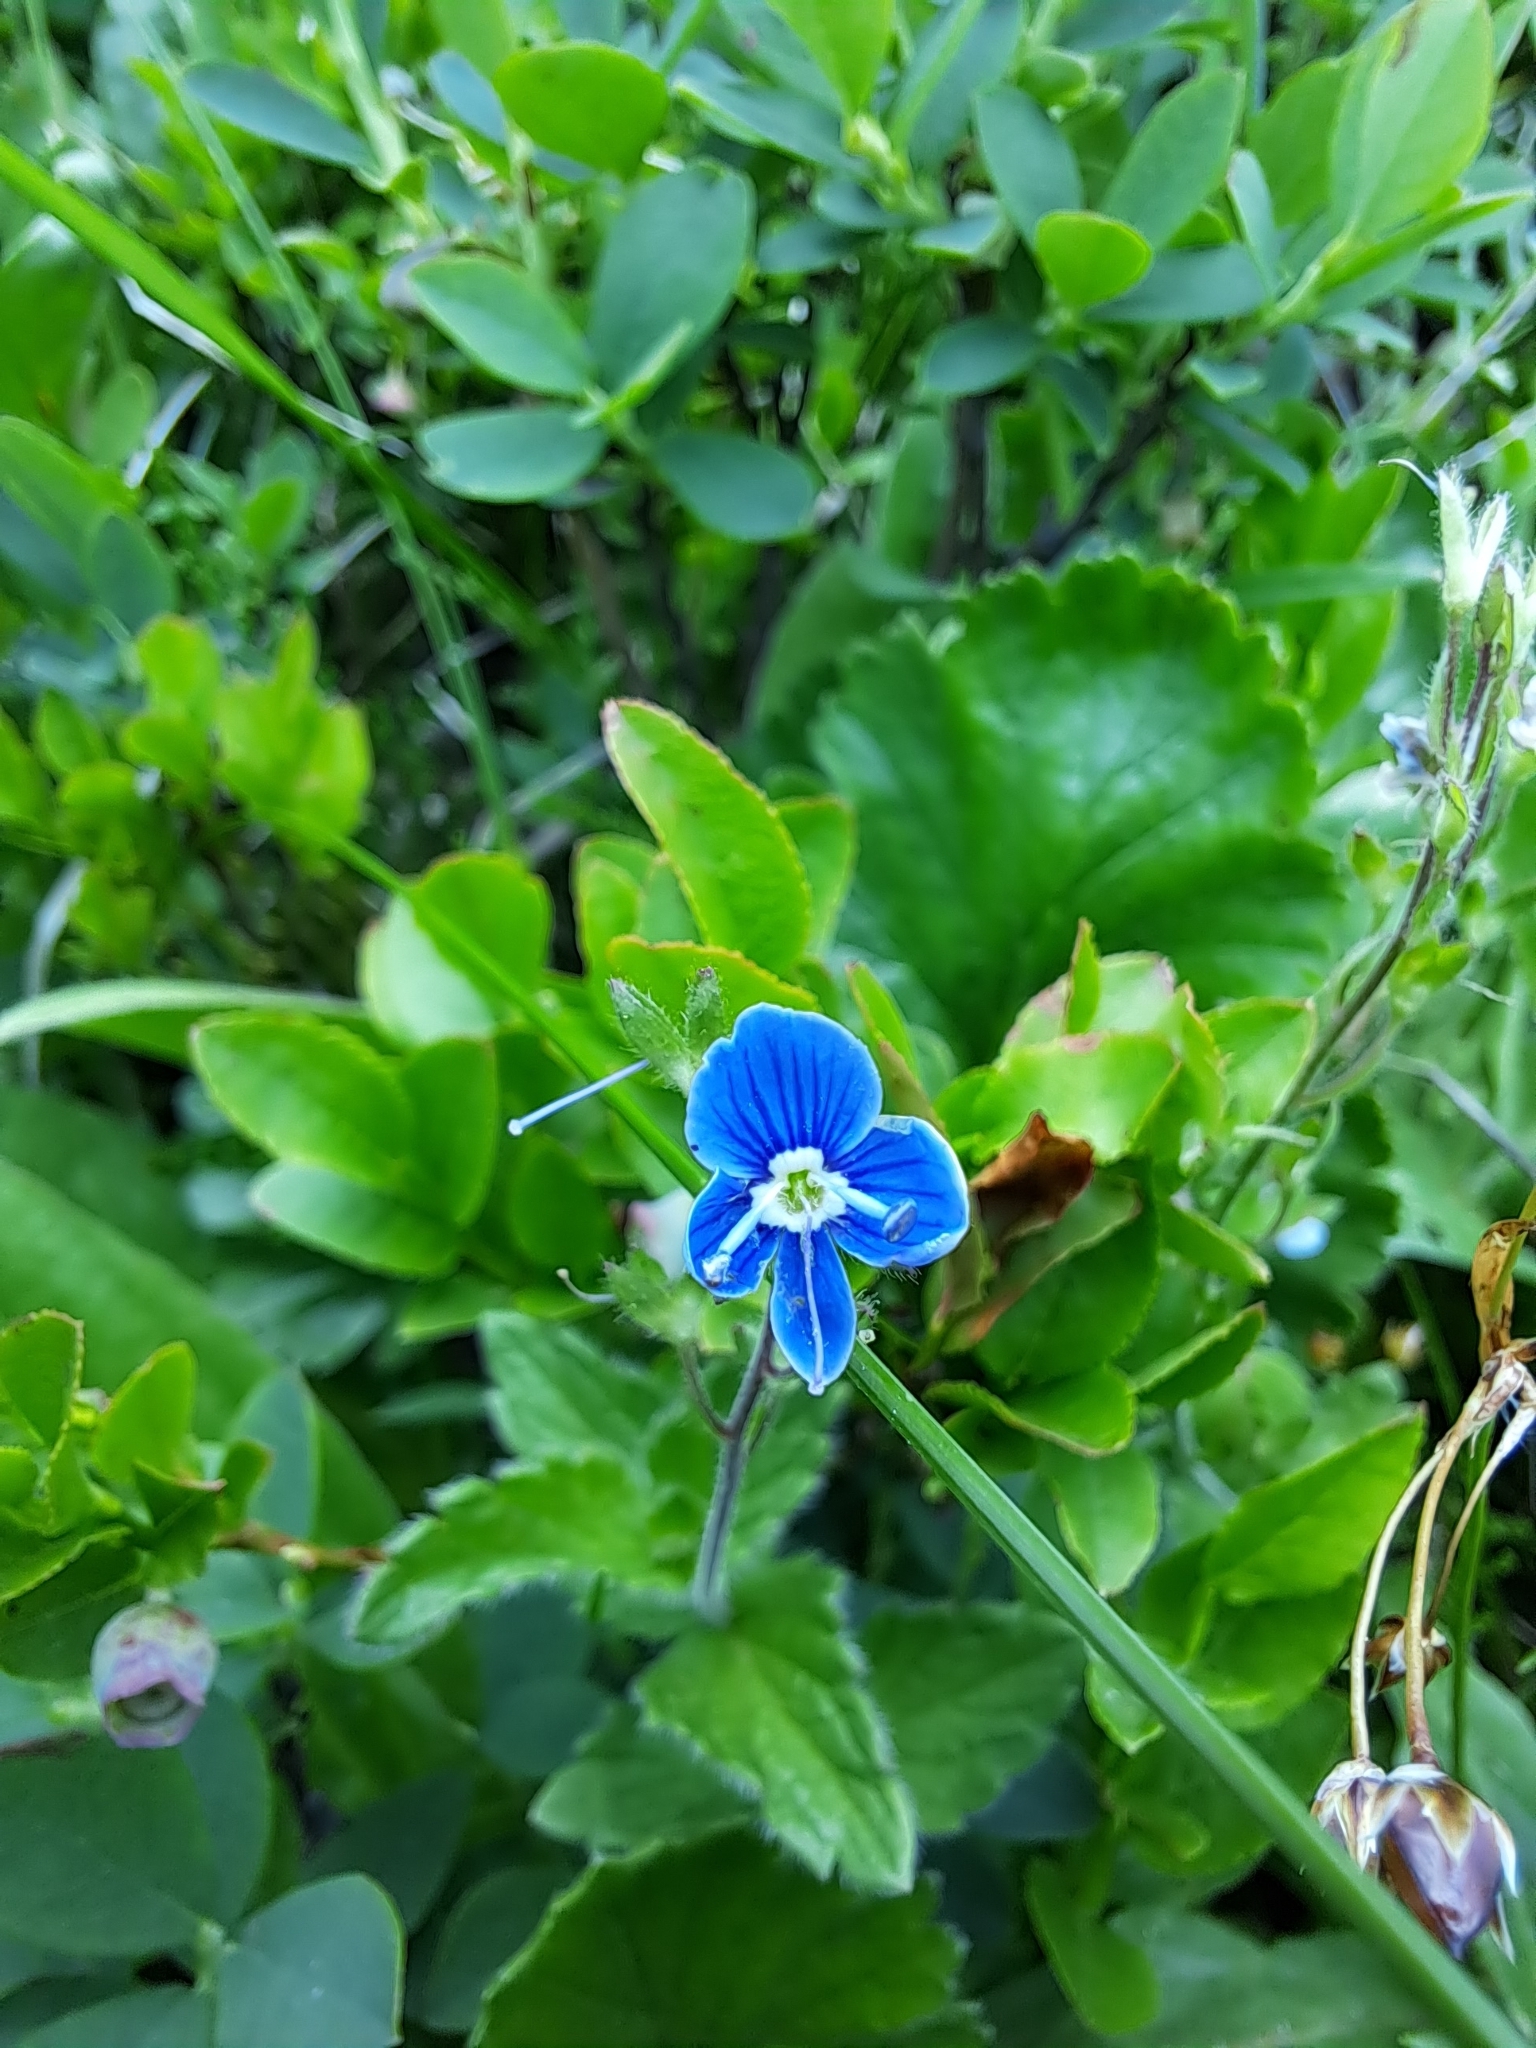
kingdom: Plantae
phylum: Tracheophyta
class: Magnoliopsida
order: Lamiales
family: Plantaginaceae
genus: Veronica
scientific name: Veronica chamaedrys
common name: Germander speedwell
